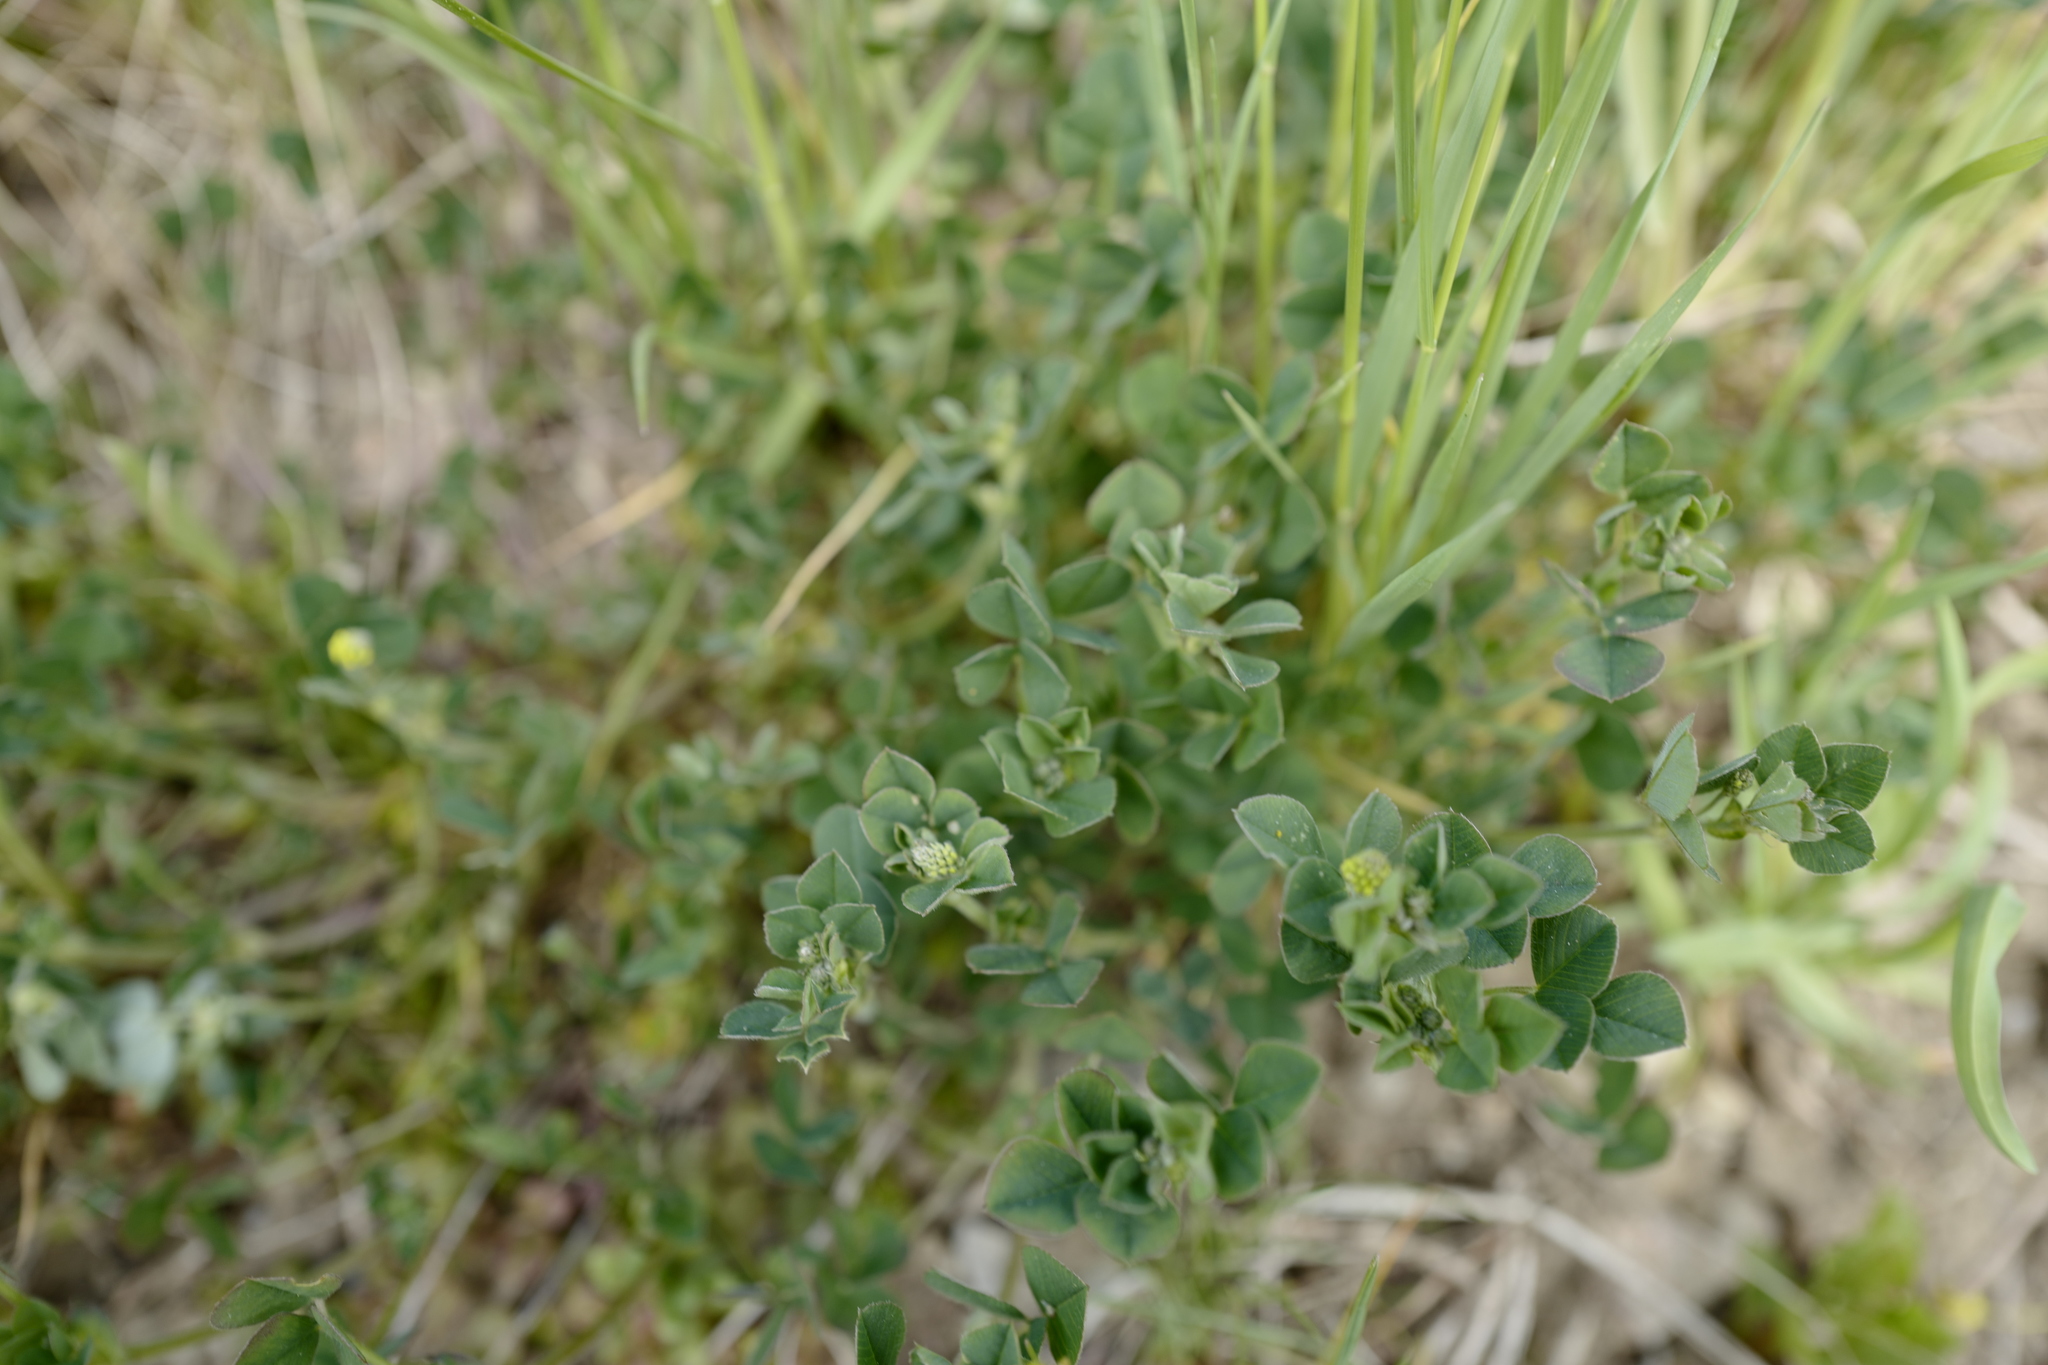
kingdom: Plantae
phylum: Tracheophyta
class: Magnoliopsida
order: Fabales
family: Fabaceae
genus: Medicago
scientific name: Medicago lupulina
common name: Black medick
